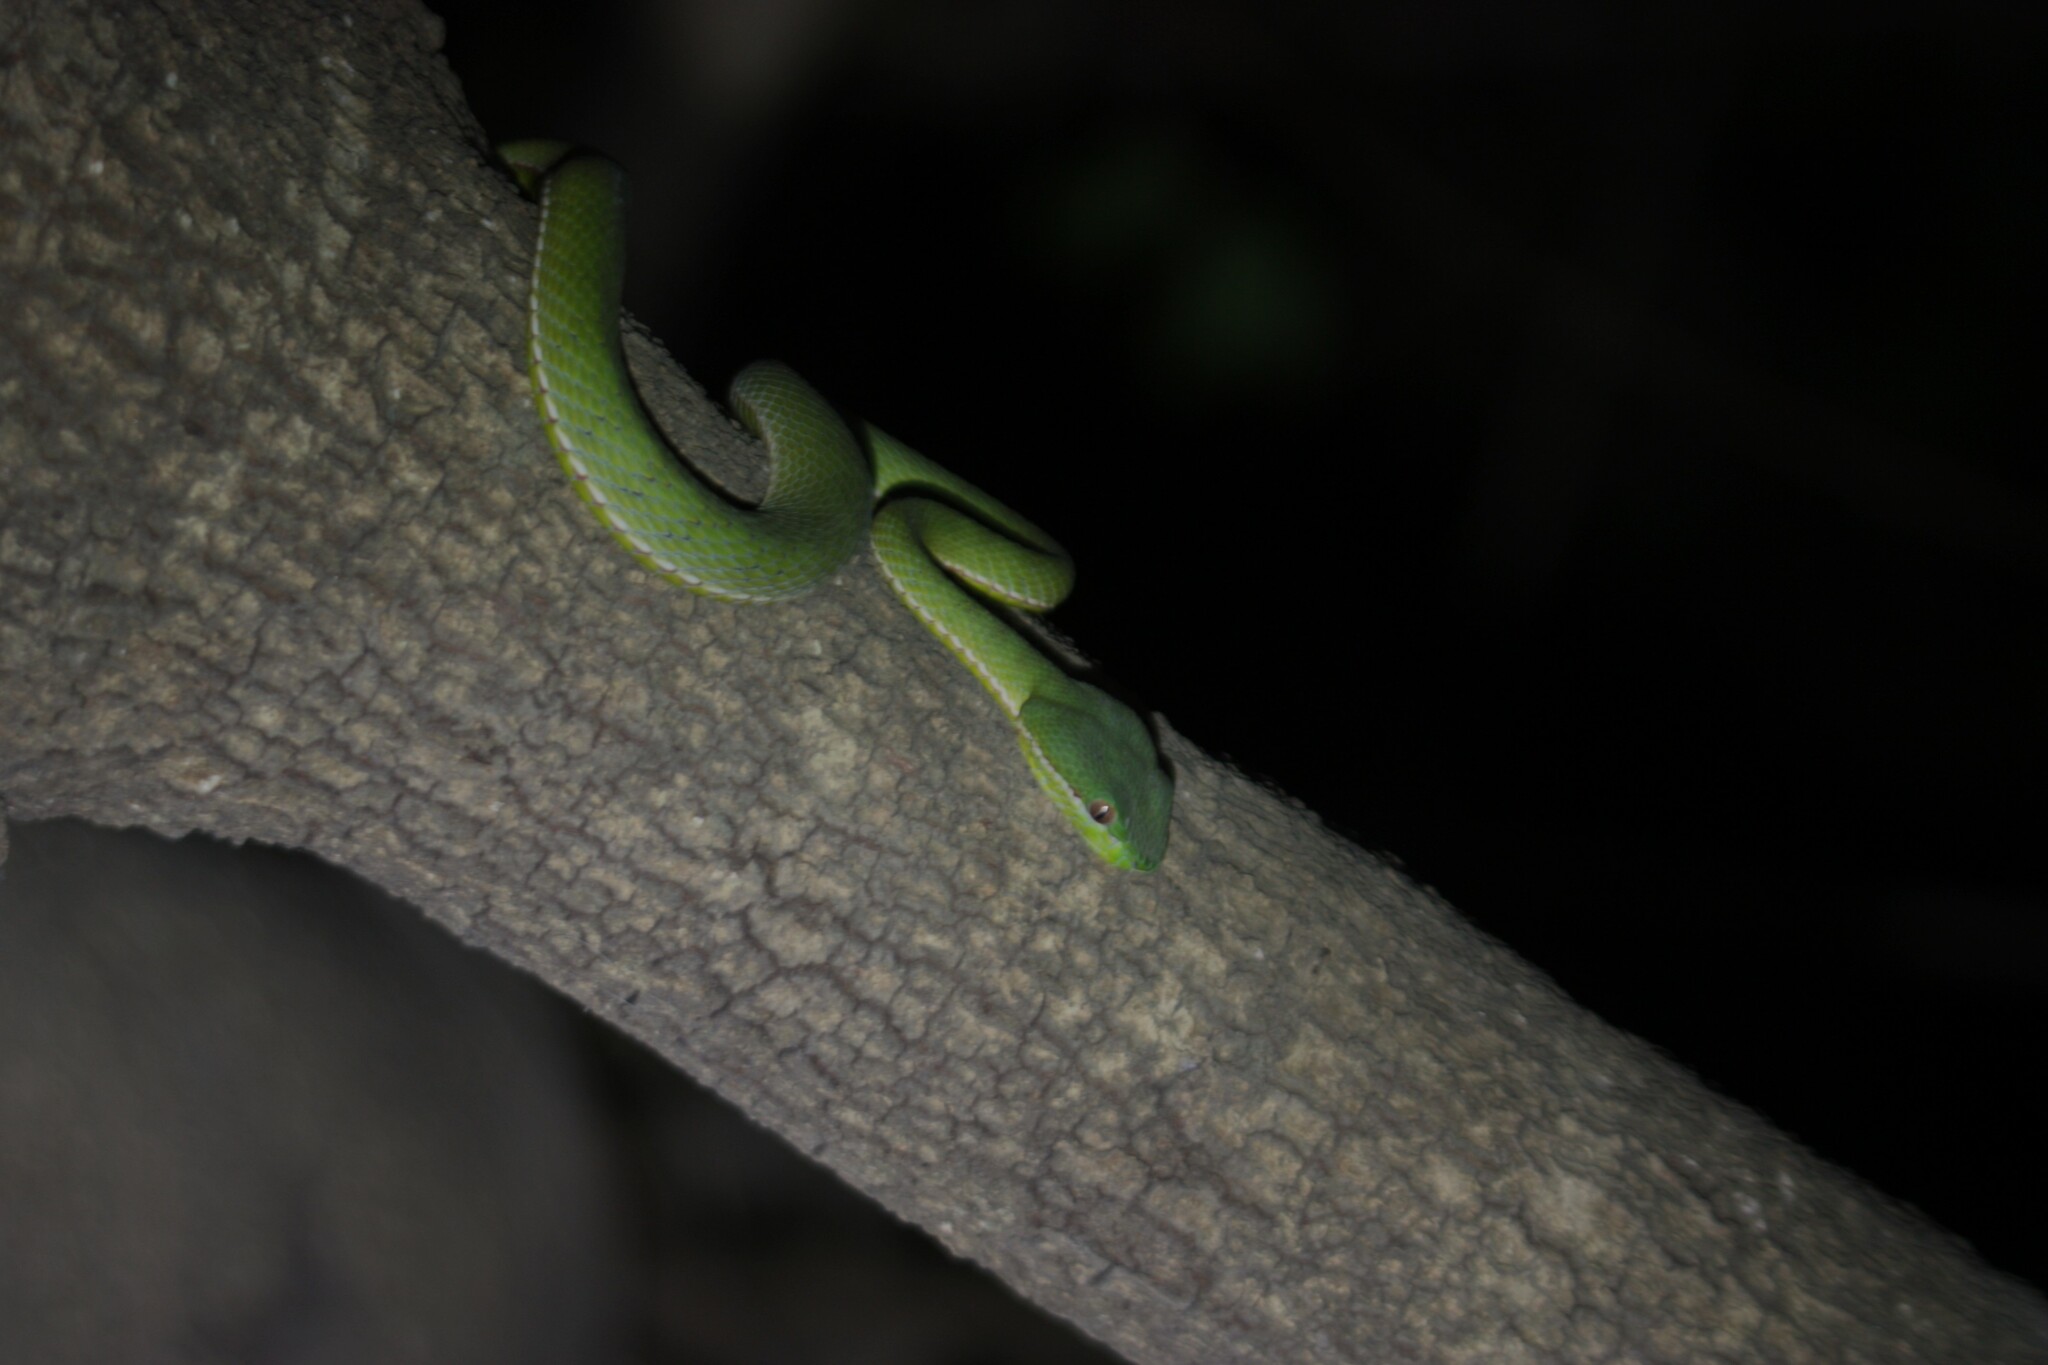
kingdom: Animalia
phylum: Chordata
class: Squamata
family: Viperidae
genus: Trimeresurus
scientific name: Trimeresurus stejnegeri
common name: Chen’s bamboo pit viper
